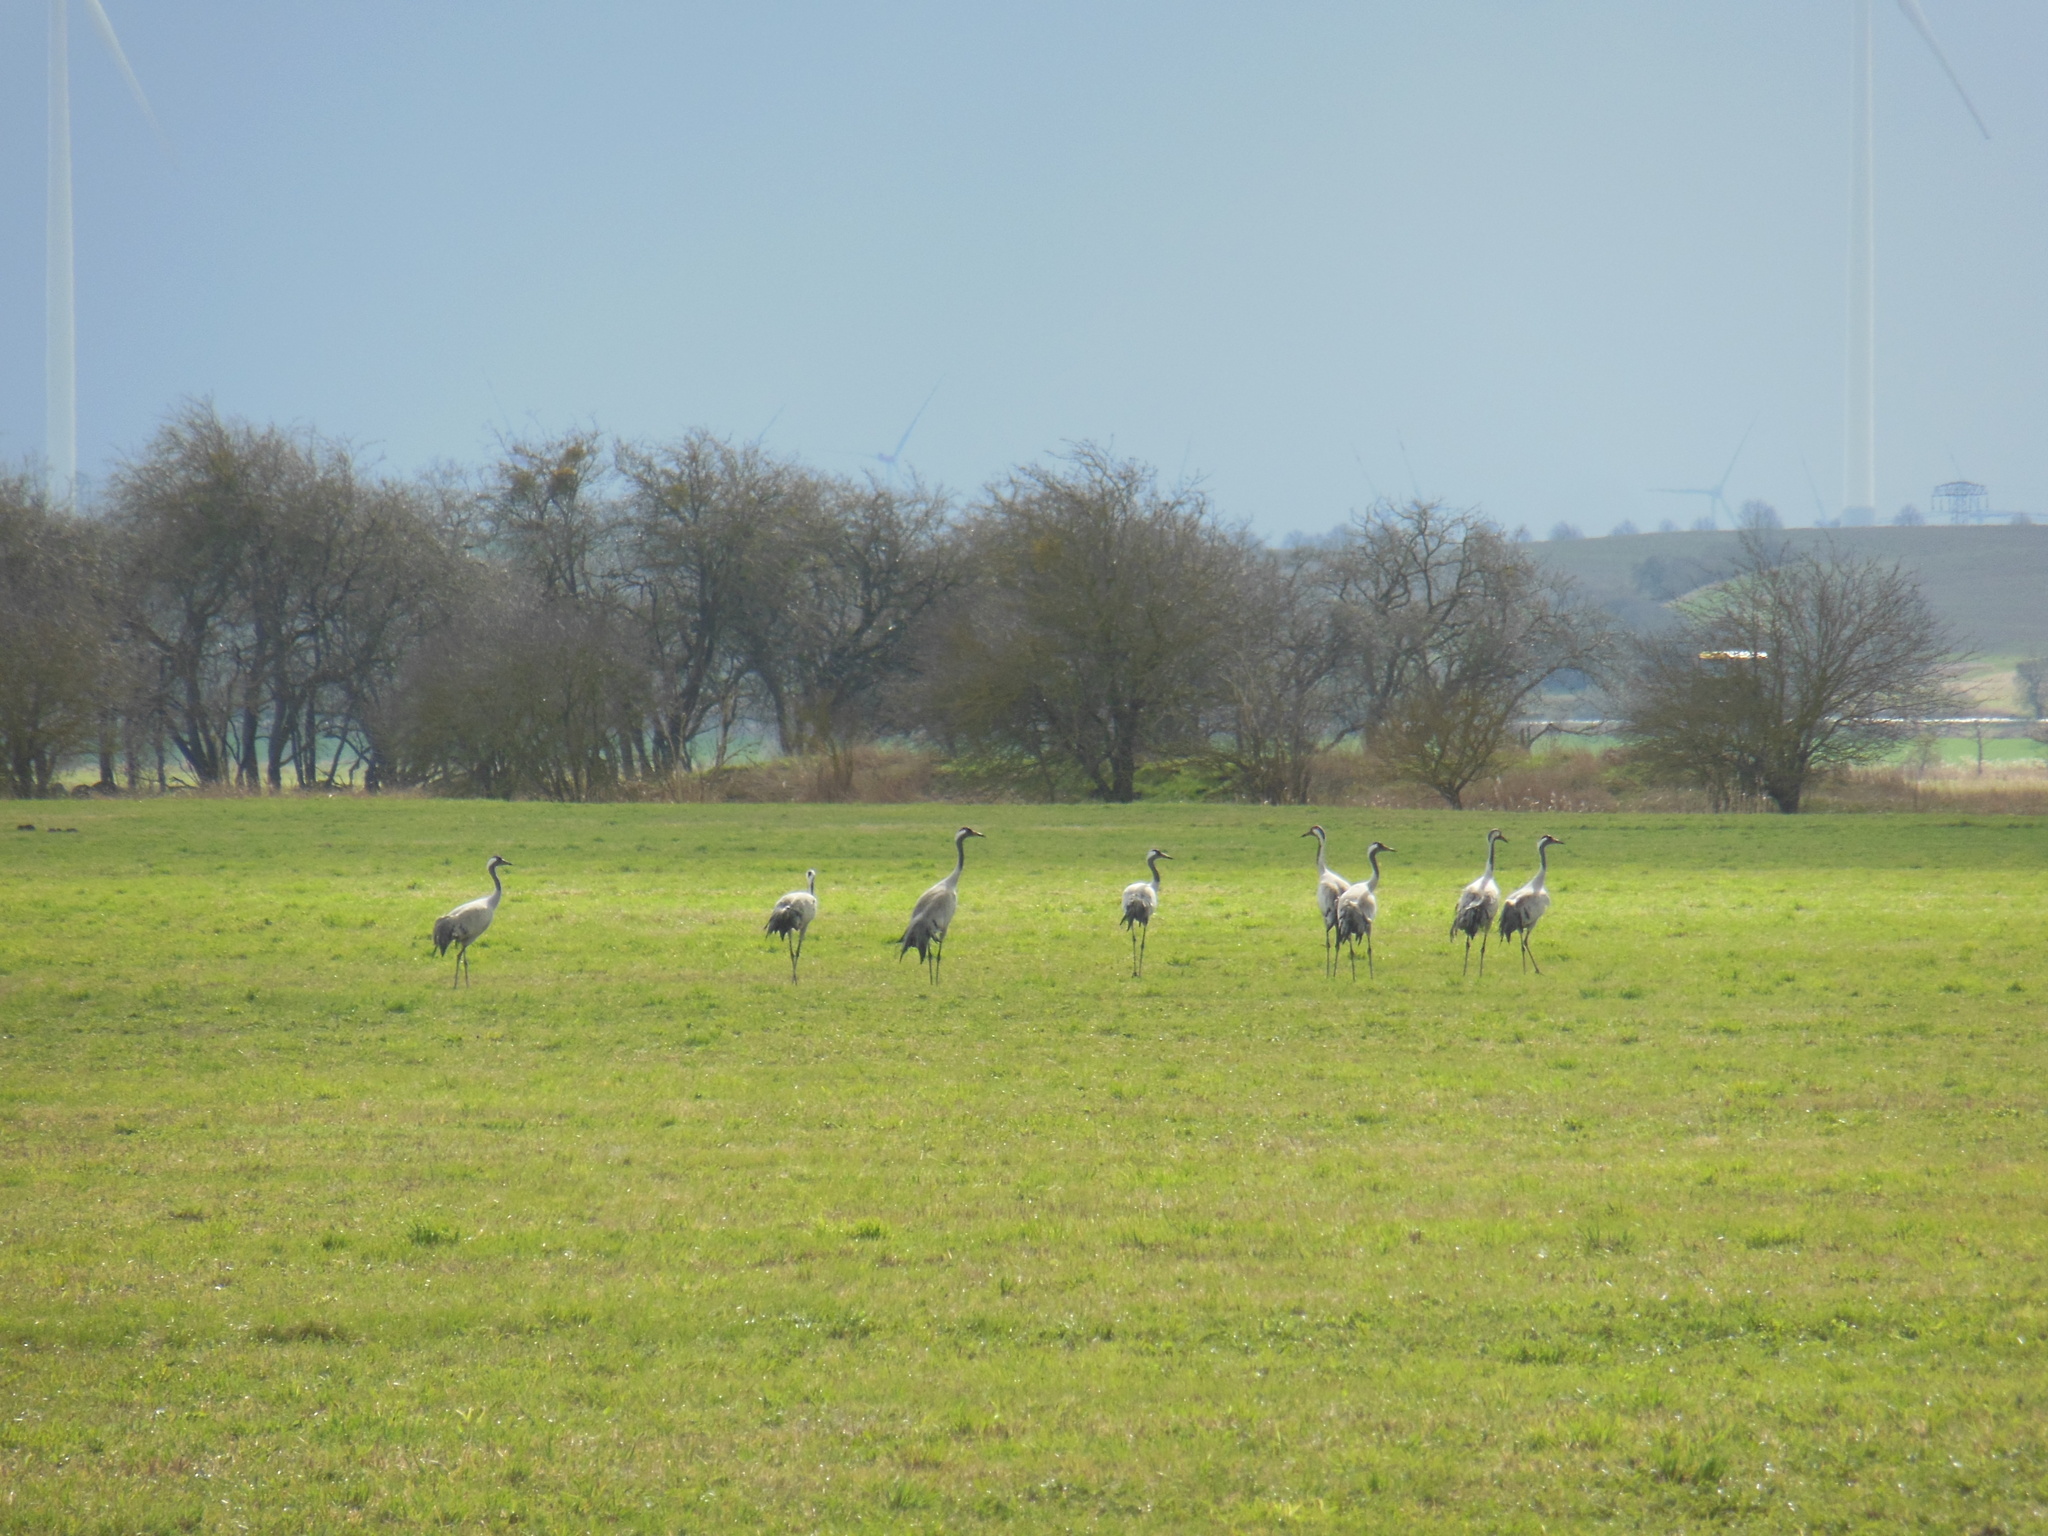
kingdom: Animalia
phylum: Chordata
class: Aves
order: Gruiformes
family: Gruidae
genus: Grus
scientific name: Grus grus
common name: Common crane
